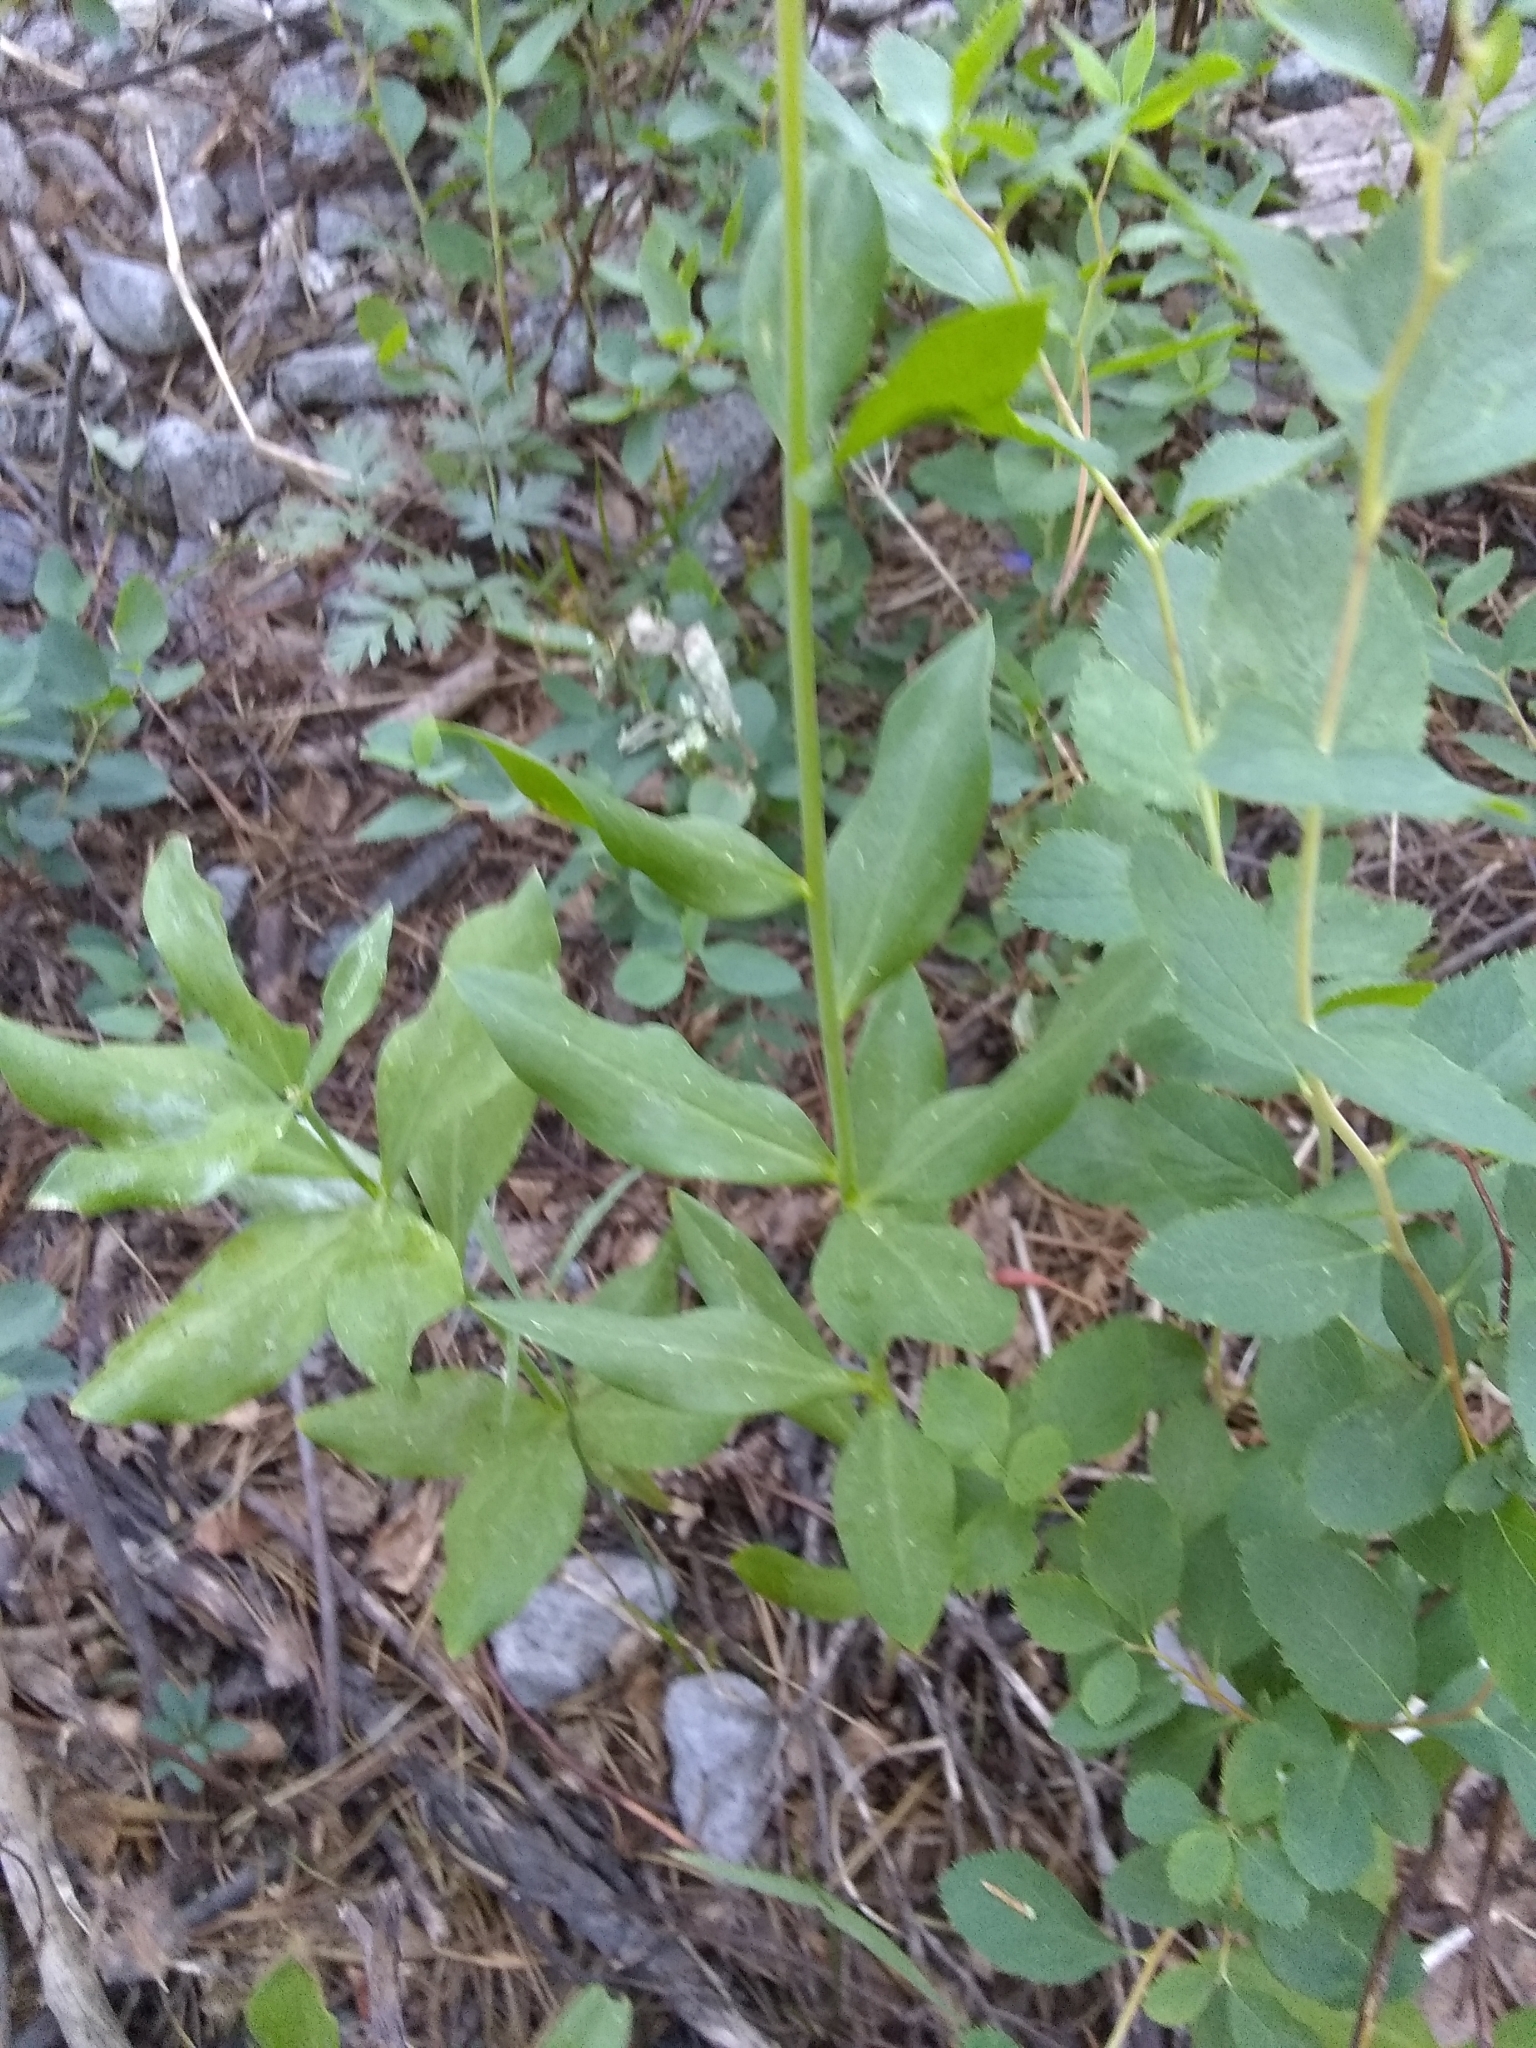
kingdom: Plantae
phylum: Tracheophyta
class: Liliopsida
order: Liliales
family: Liliaceae
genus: Lilium
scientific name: Lilium parvum
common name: Alpine lily
